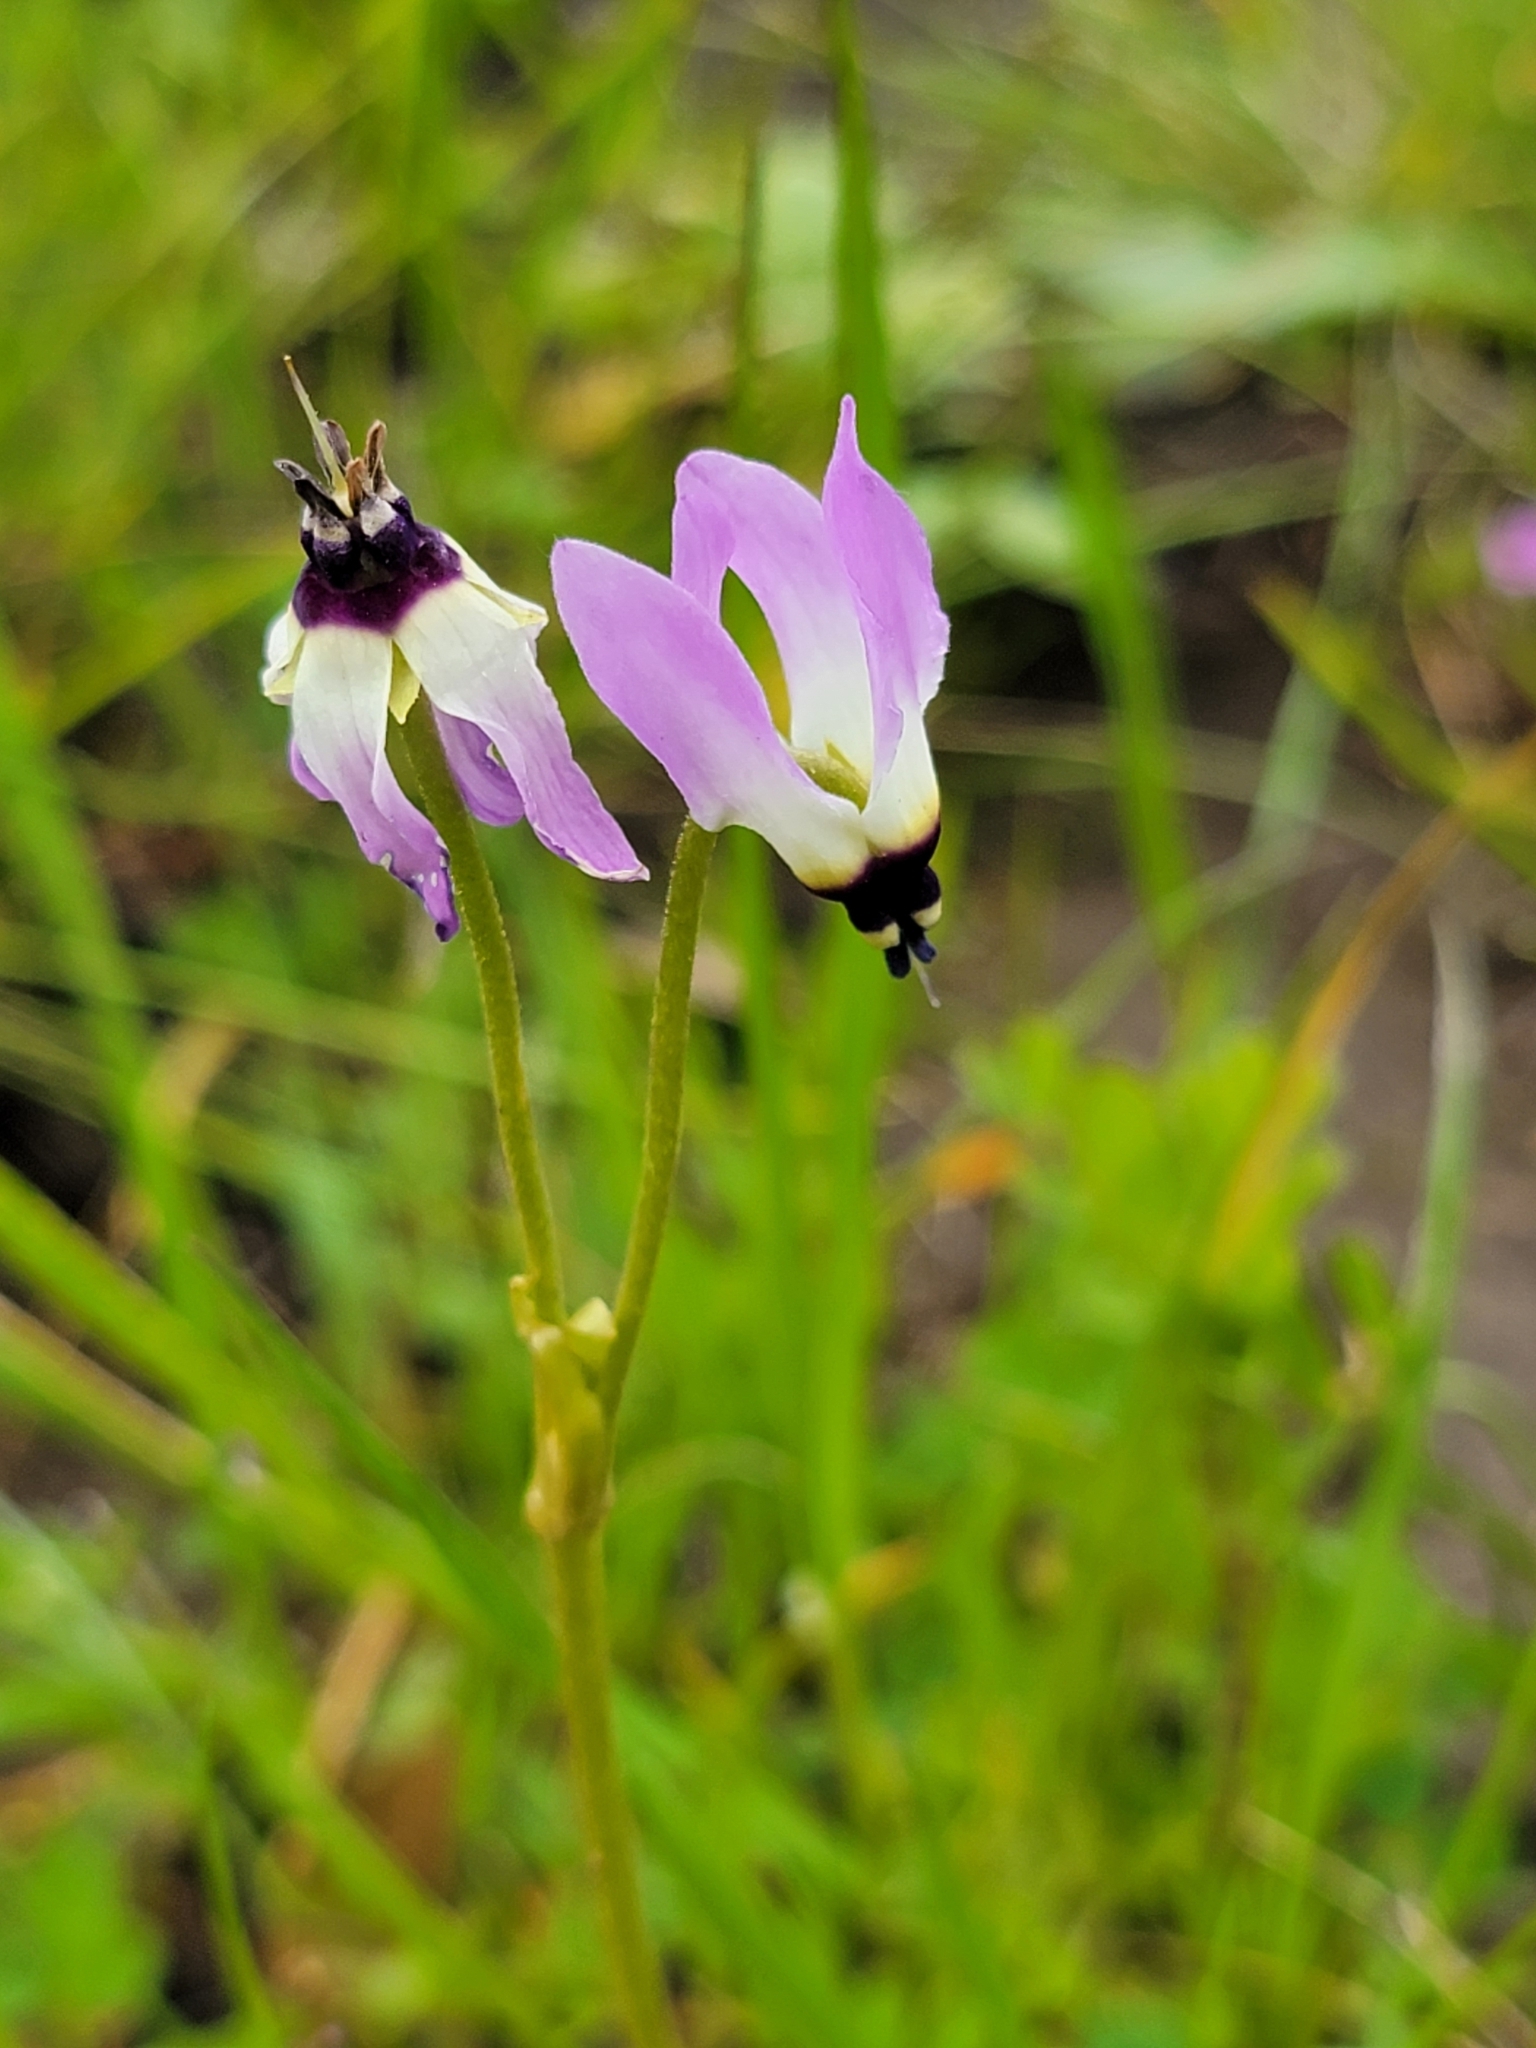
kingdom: Plantae
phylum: Tracheophyta
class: Magnoliopsida
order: Ericales
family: Primulaceae
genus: Dodecatheon
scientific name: Dodecatheon clevelandii
